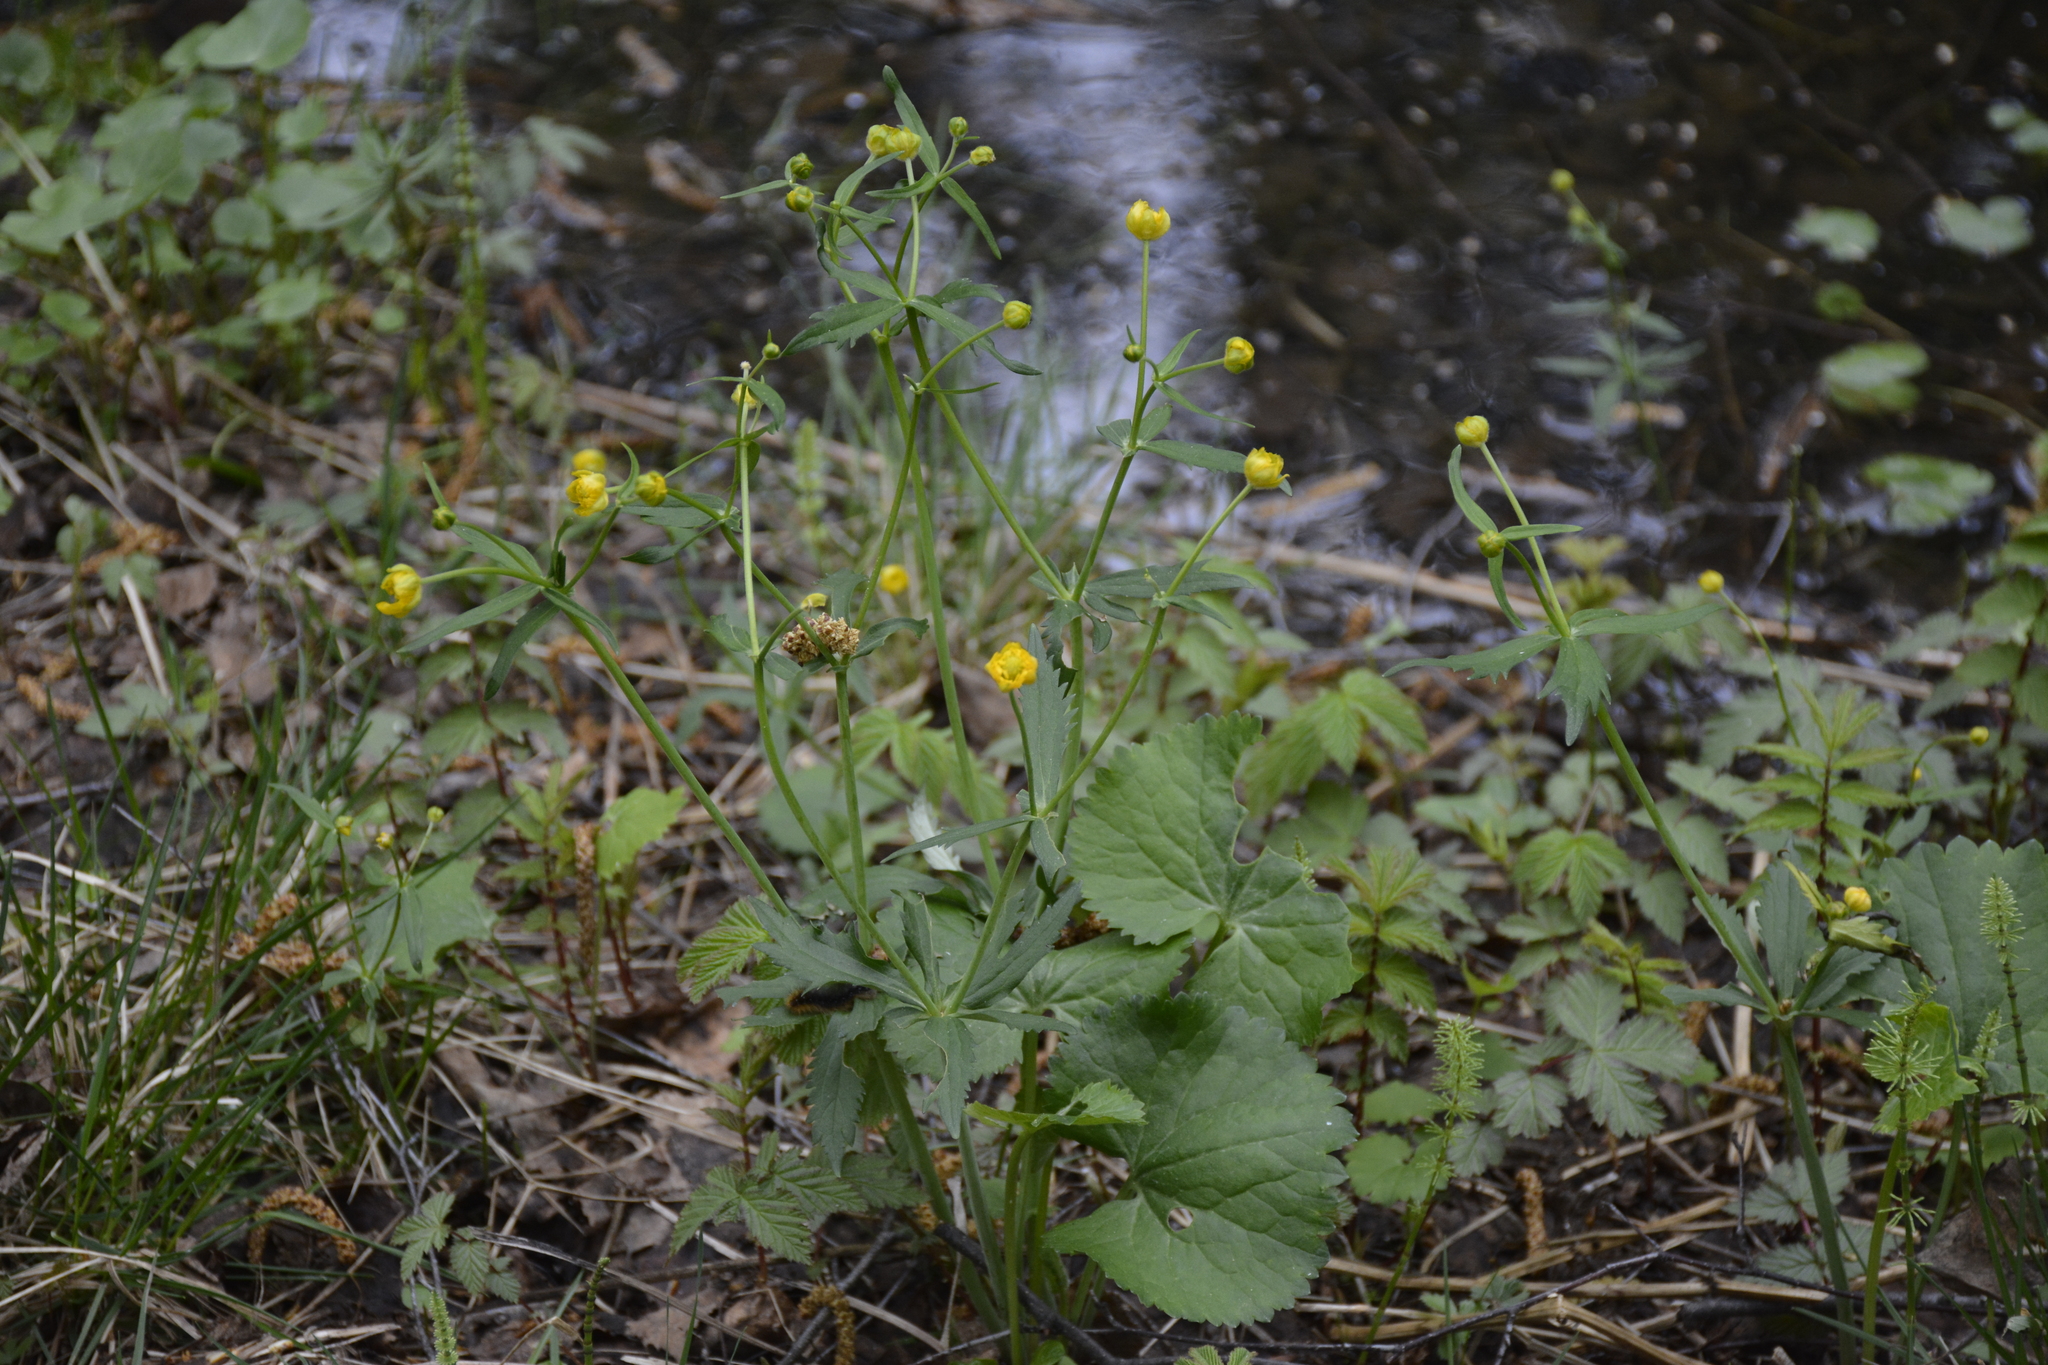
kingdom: Plantae
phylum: Tracheophyta
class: Magnoliopsida
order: Ranunculales
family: Ranunculaceae
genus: Ranunculus
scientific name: Ranunculus cassubicus
